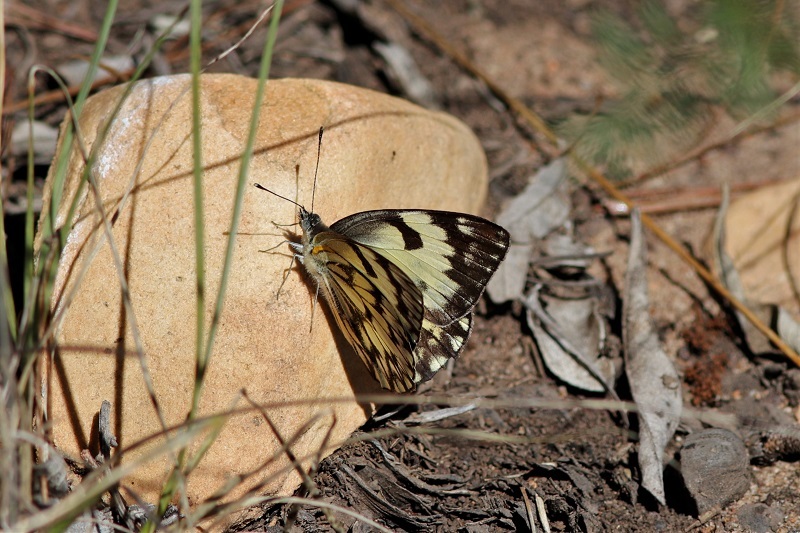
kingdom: Animalia
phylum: Arthropoda
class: Insecta
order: Lepidoptera
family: Pieridae
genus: Belenois
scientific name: Belenois gidica
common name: Pointed caper white
